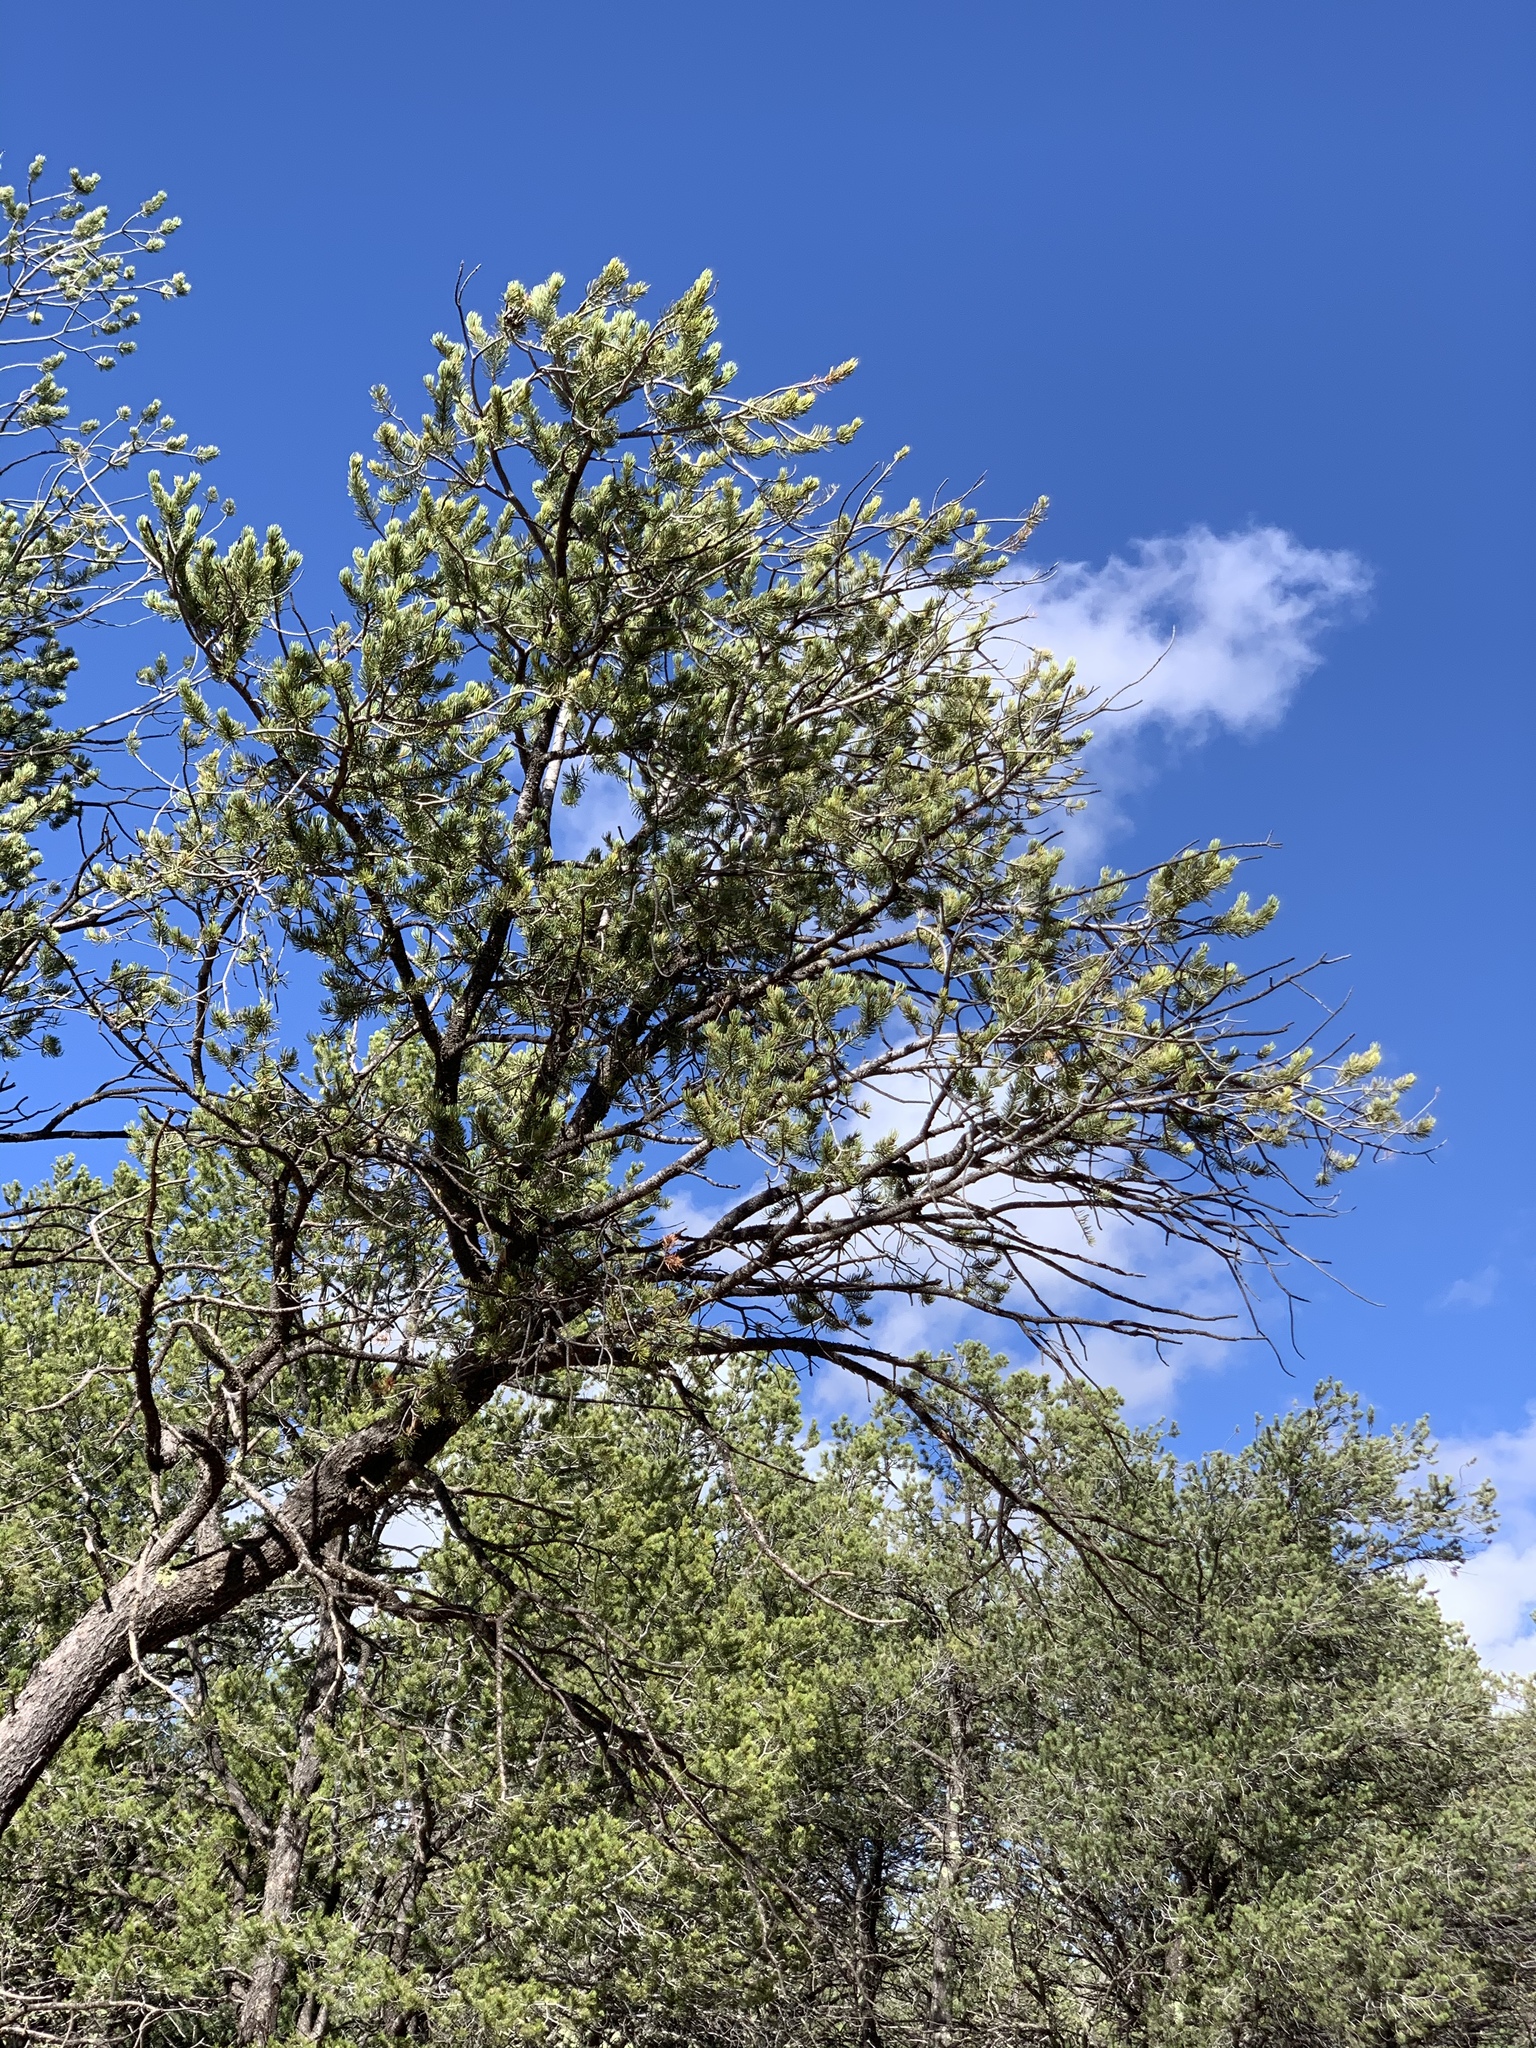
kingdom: Plantae
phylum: Tracheophyta
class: Pinopsida
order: Pinales
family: Pinaceae
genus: Pinus
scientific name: Pinus edulis
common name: Colorado pinyon
